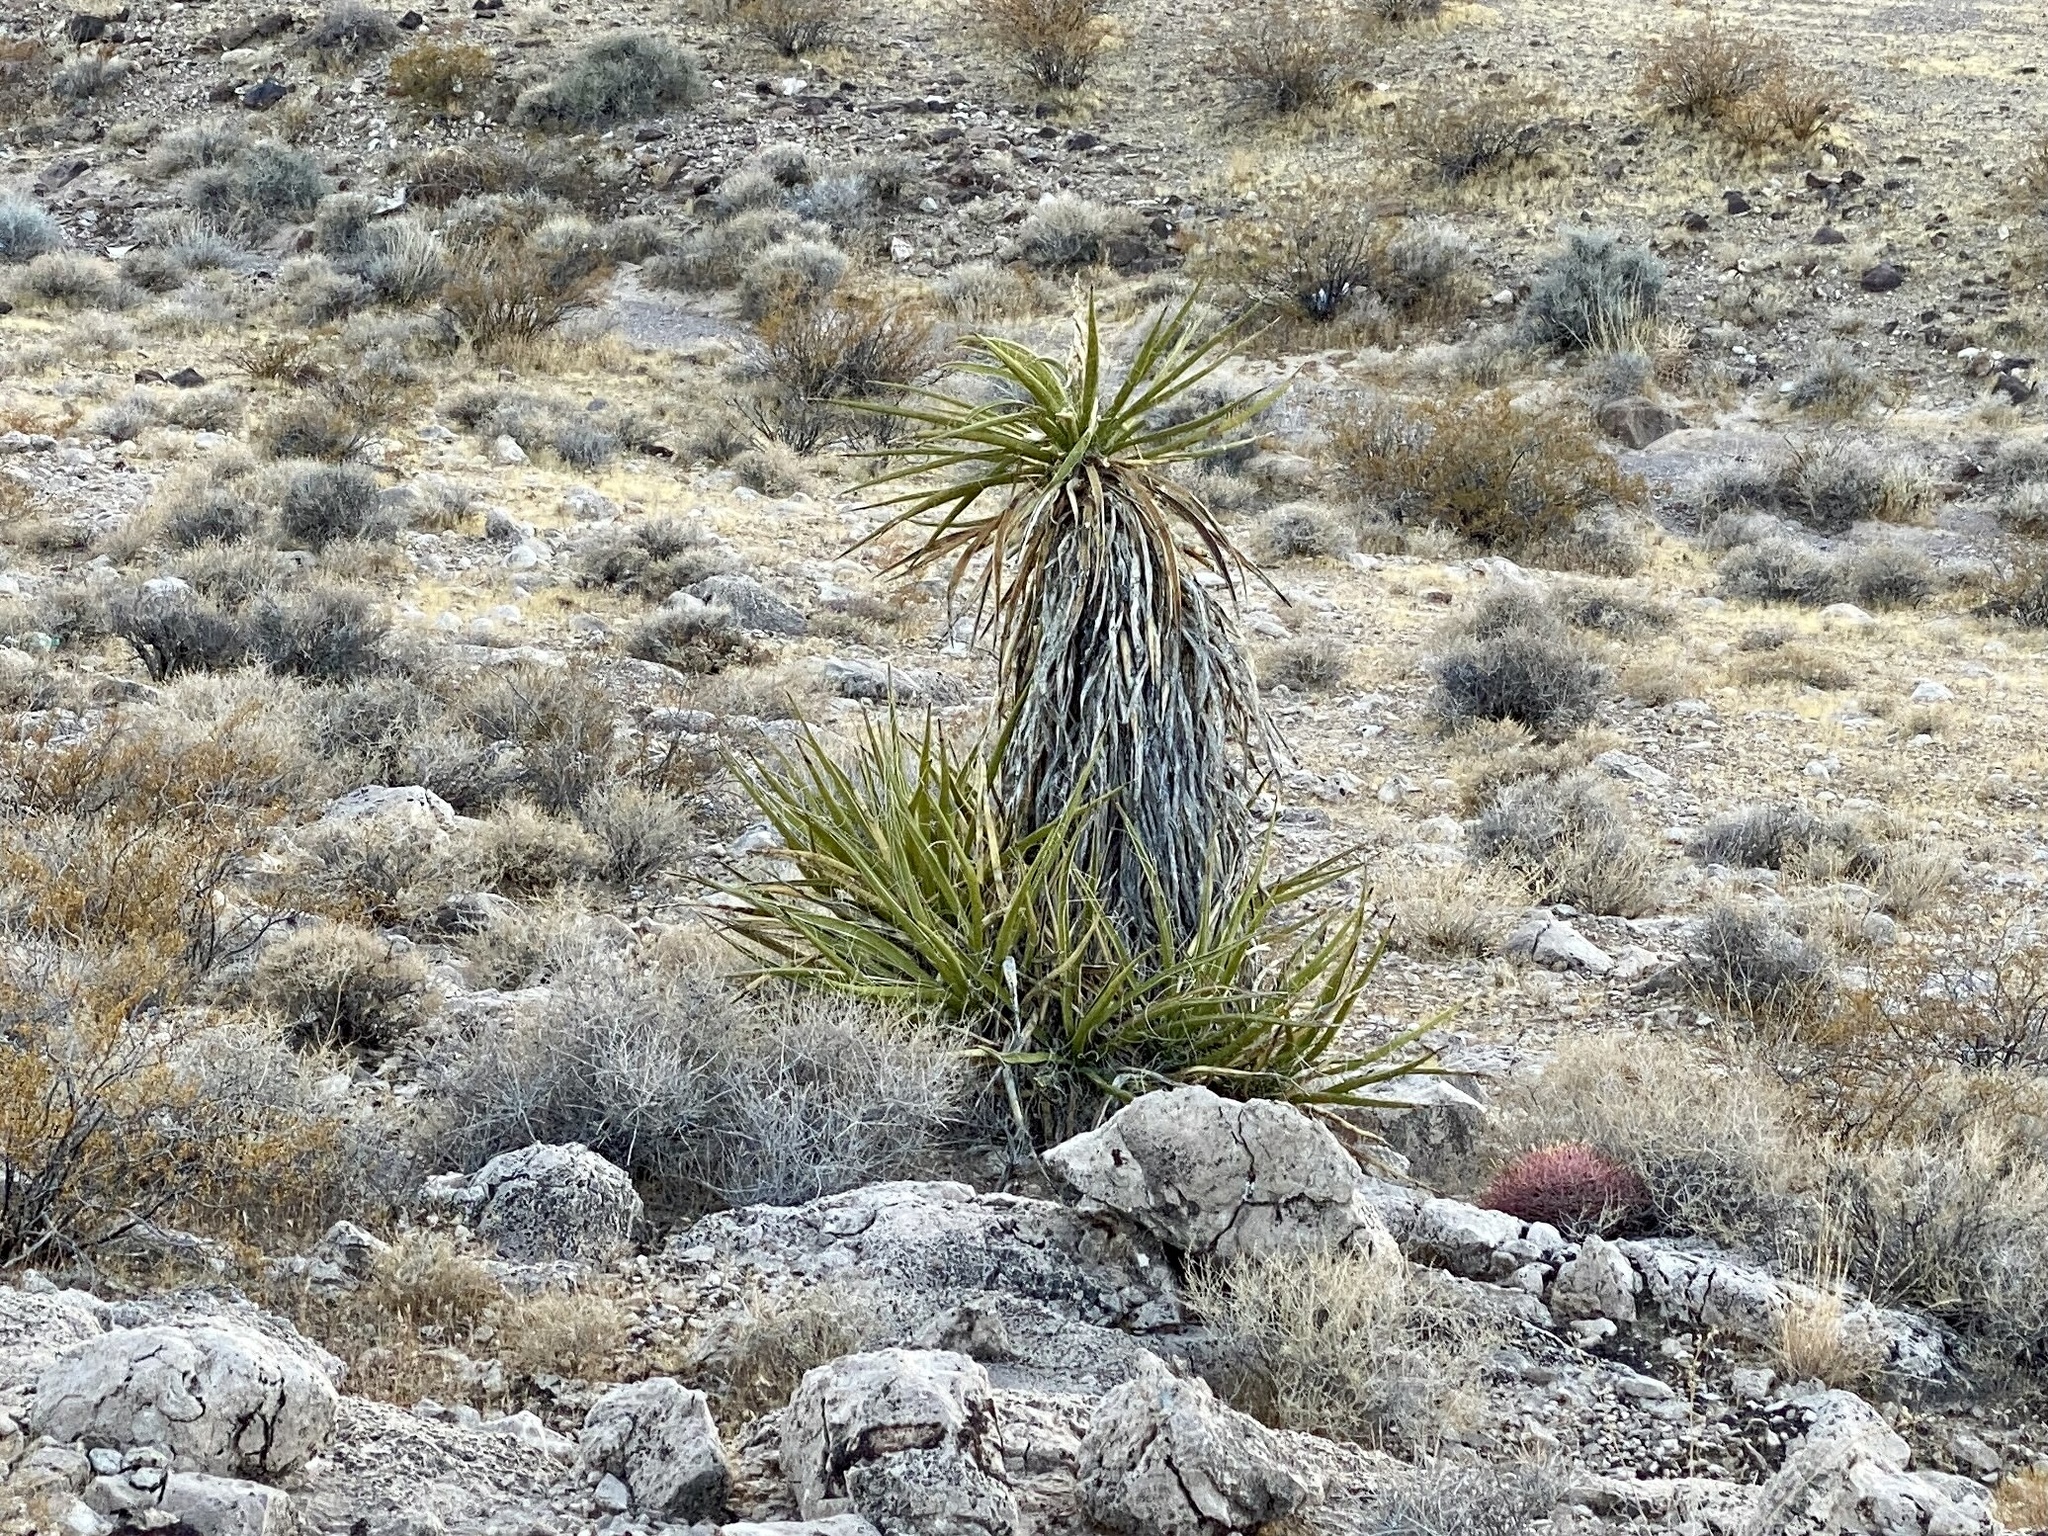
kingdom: Plantae
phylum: Tracheophyta
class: Liliopsida
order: Asparagales
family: Asparagaceae
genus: Yucca
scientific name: Yucca schidigera
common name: Mojave yucca
